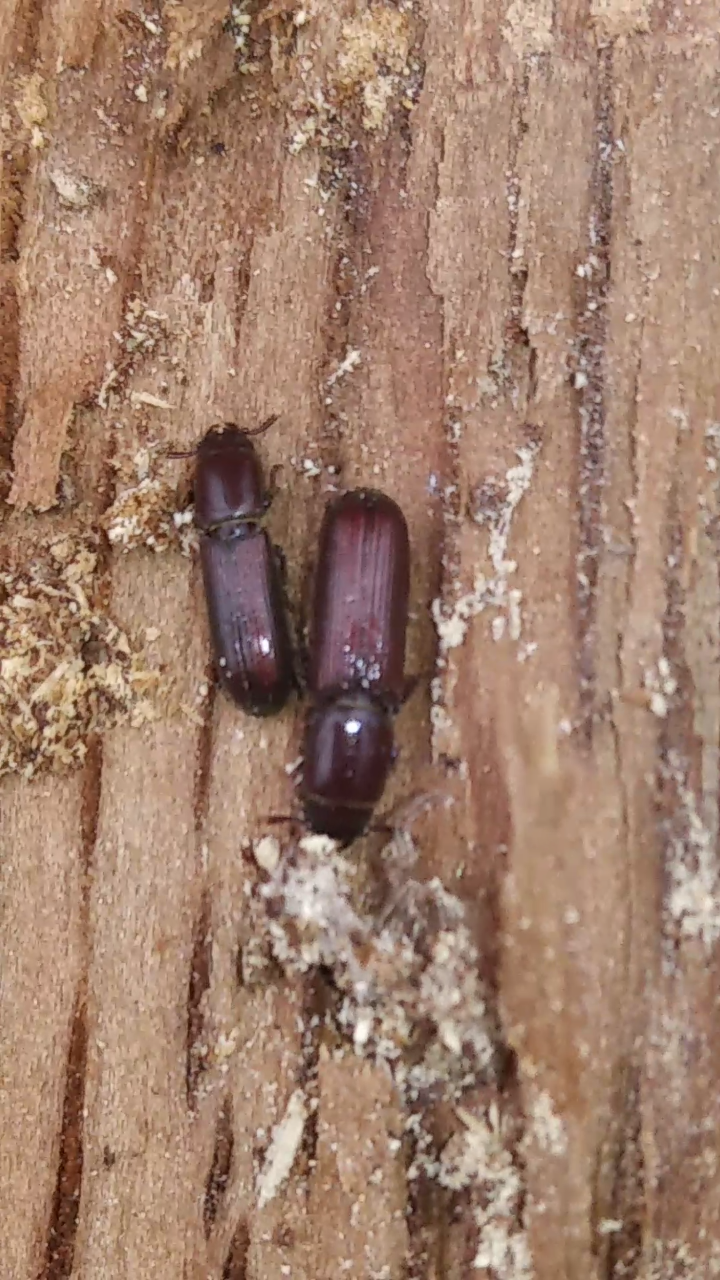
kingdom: Animalia
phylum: Arthropoda
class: Insecta
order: Coleoptera
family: Trogossitidae
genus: Airora
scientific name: Airora cylindrica
